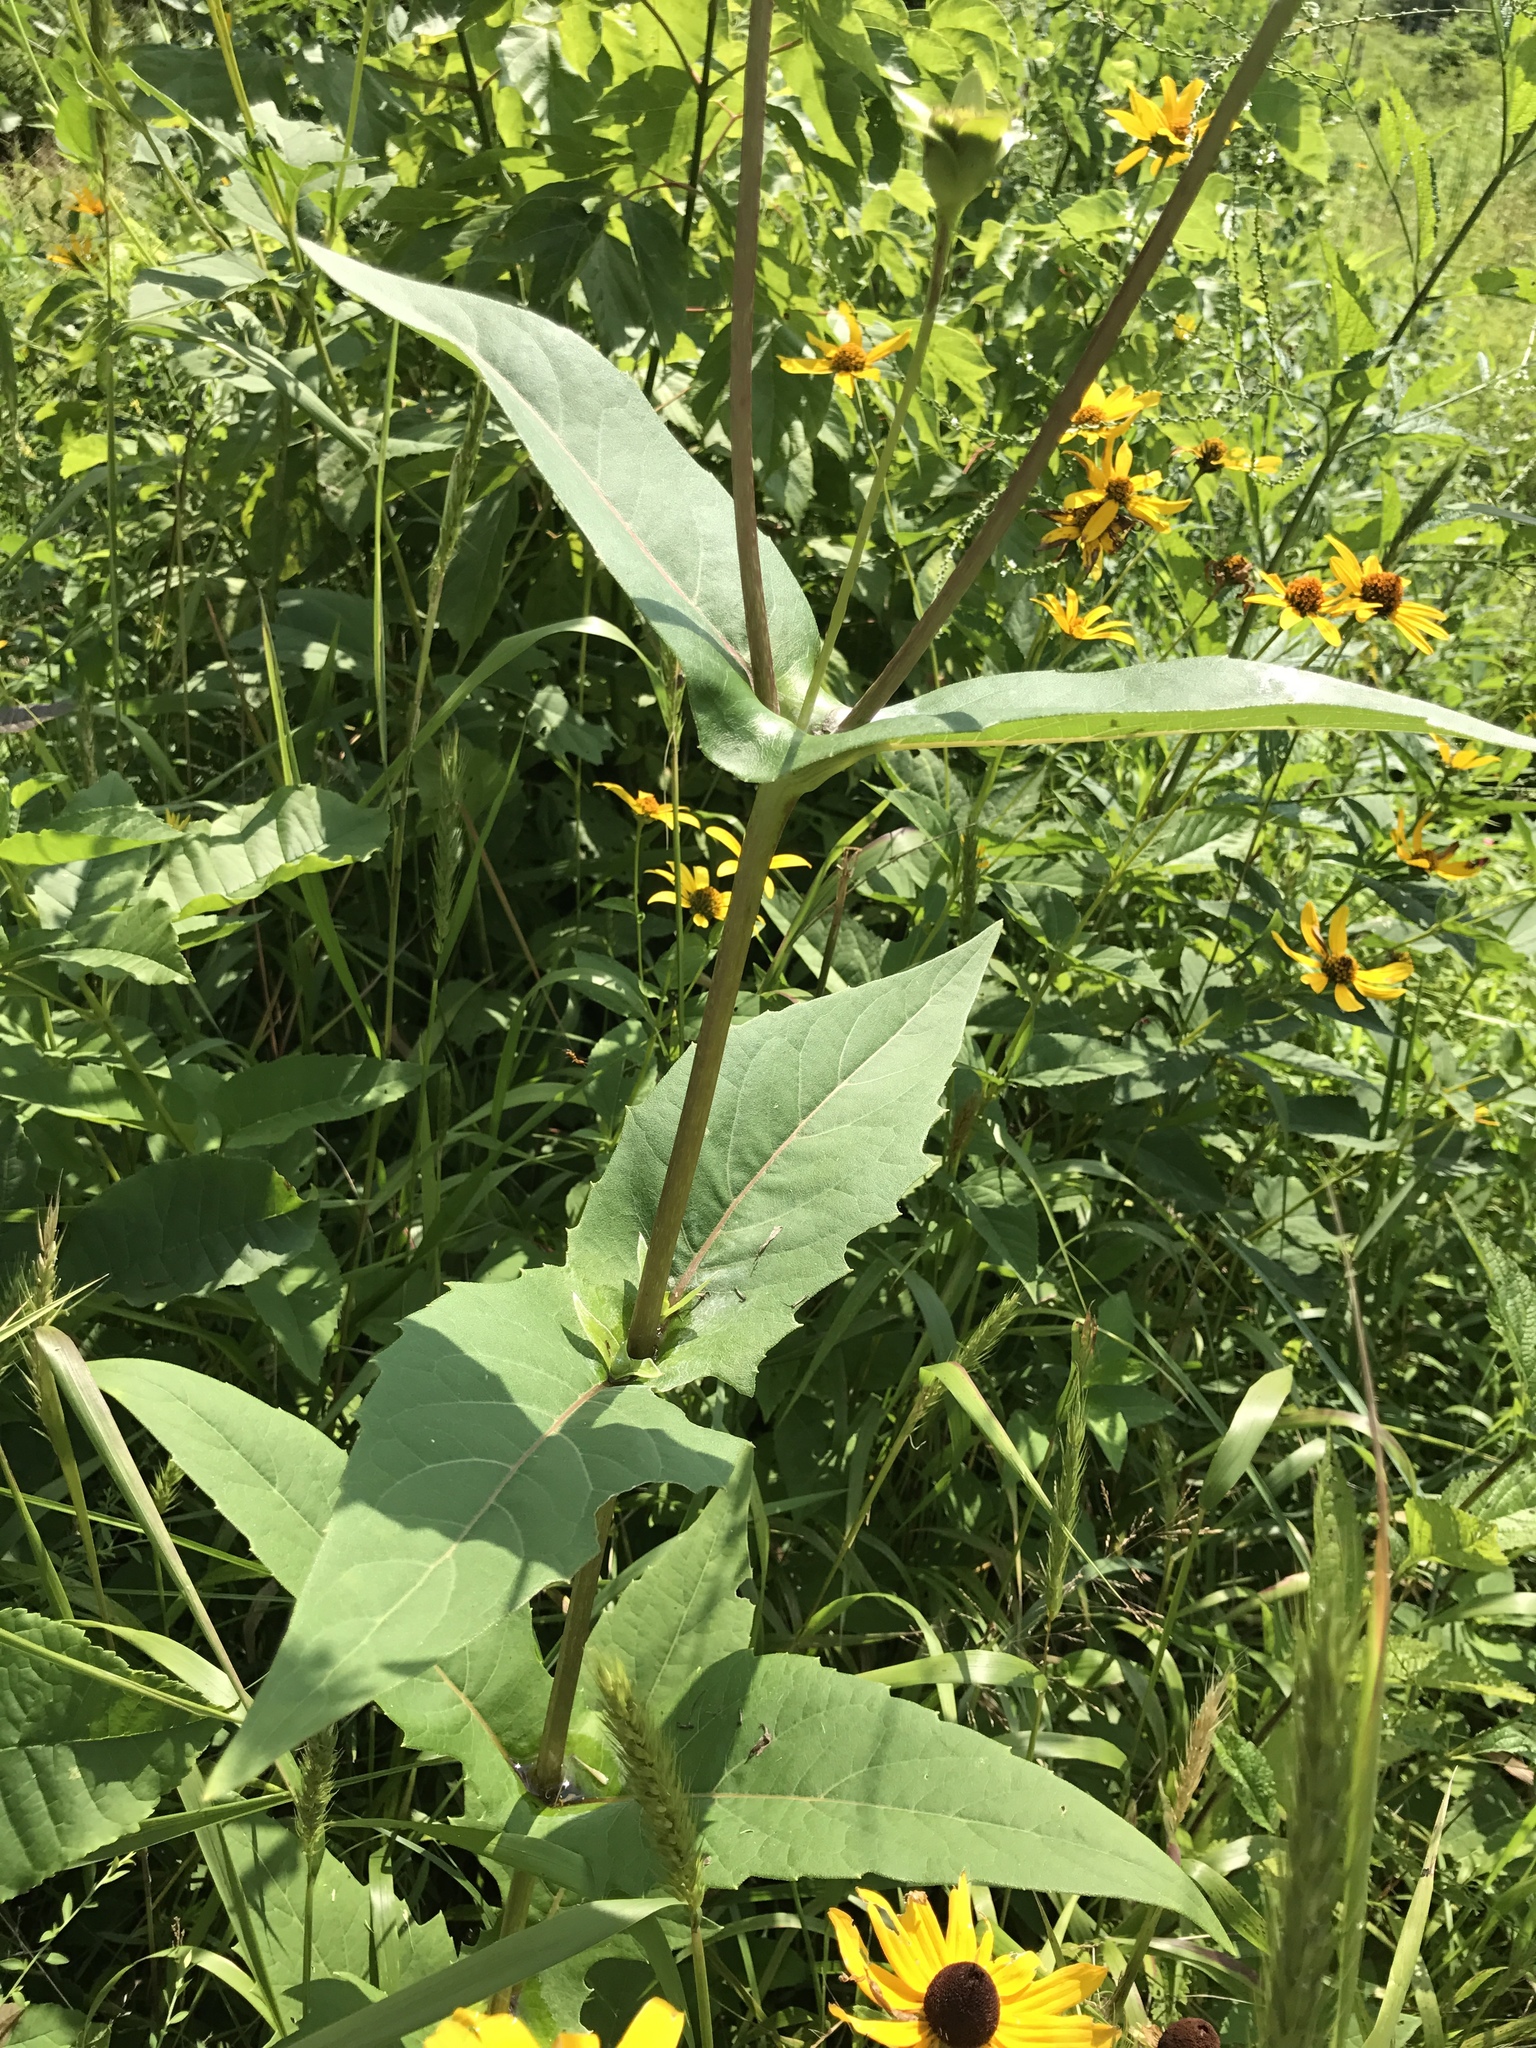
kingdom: Plantae
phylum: Tracheophyta
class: Magnoliopsida
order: Asterales
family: Asteraceae
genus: Heliopsis
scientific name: Heliopsis helianthoides
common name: False sunflower
